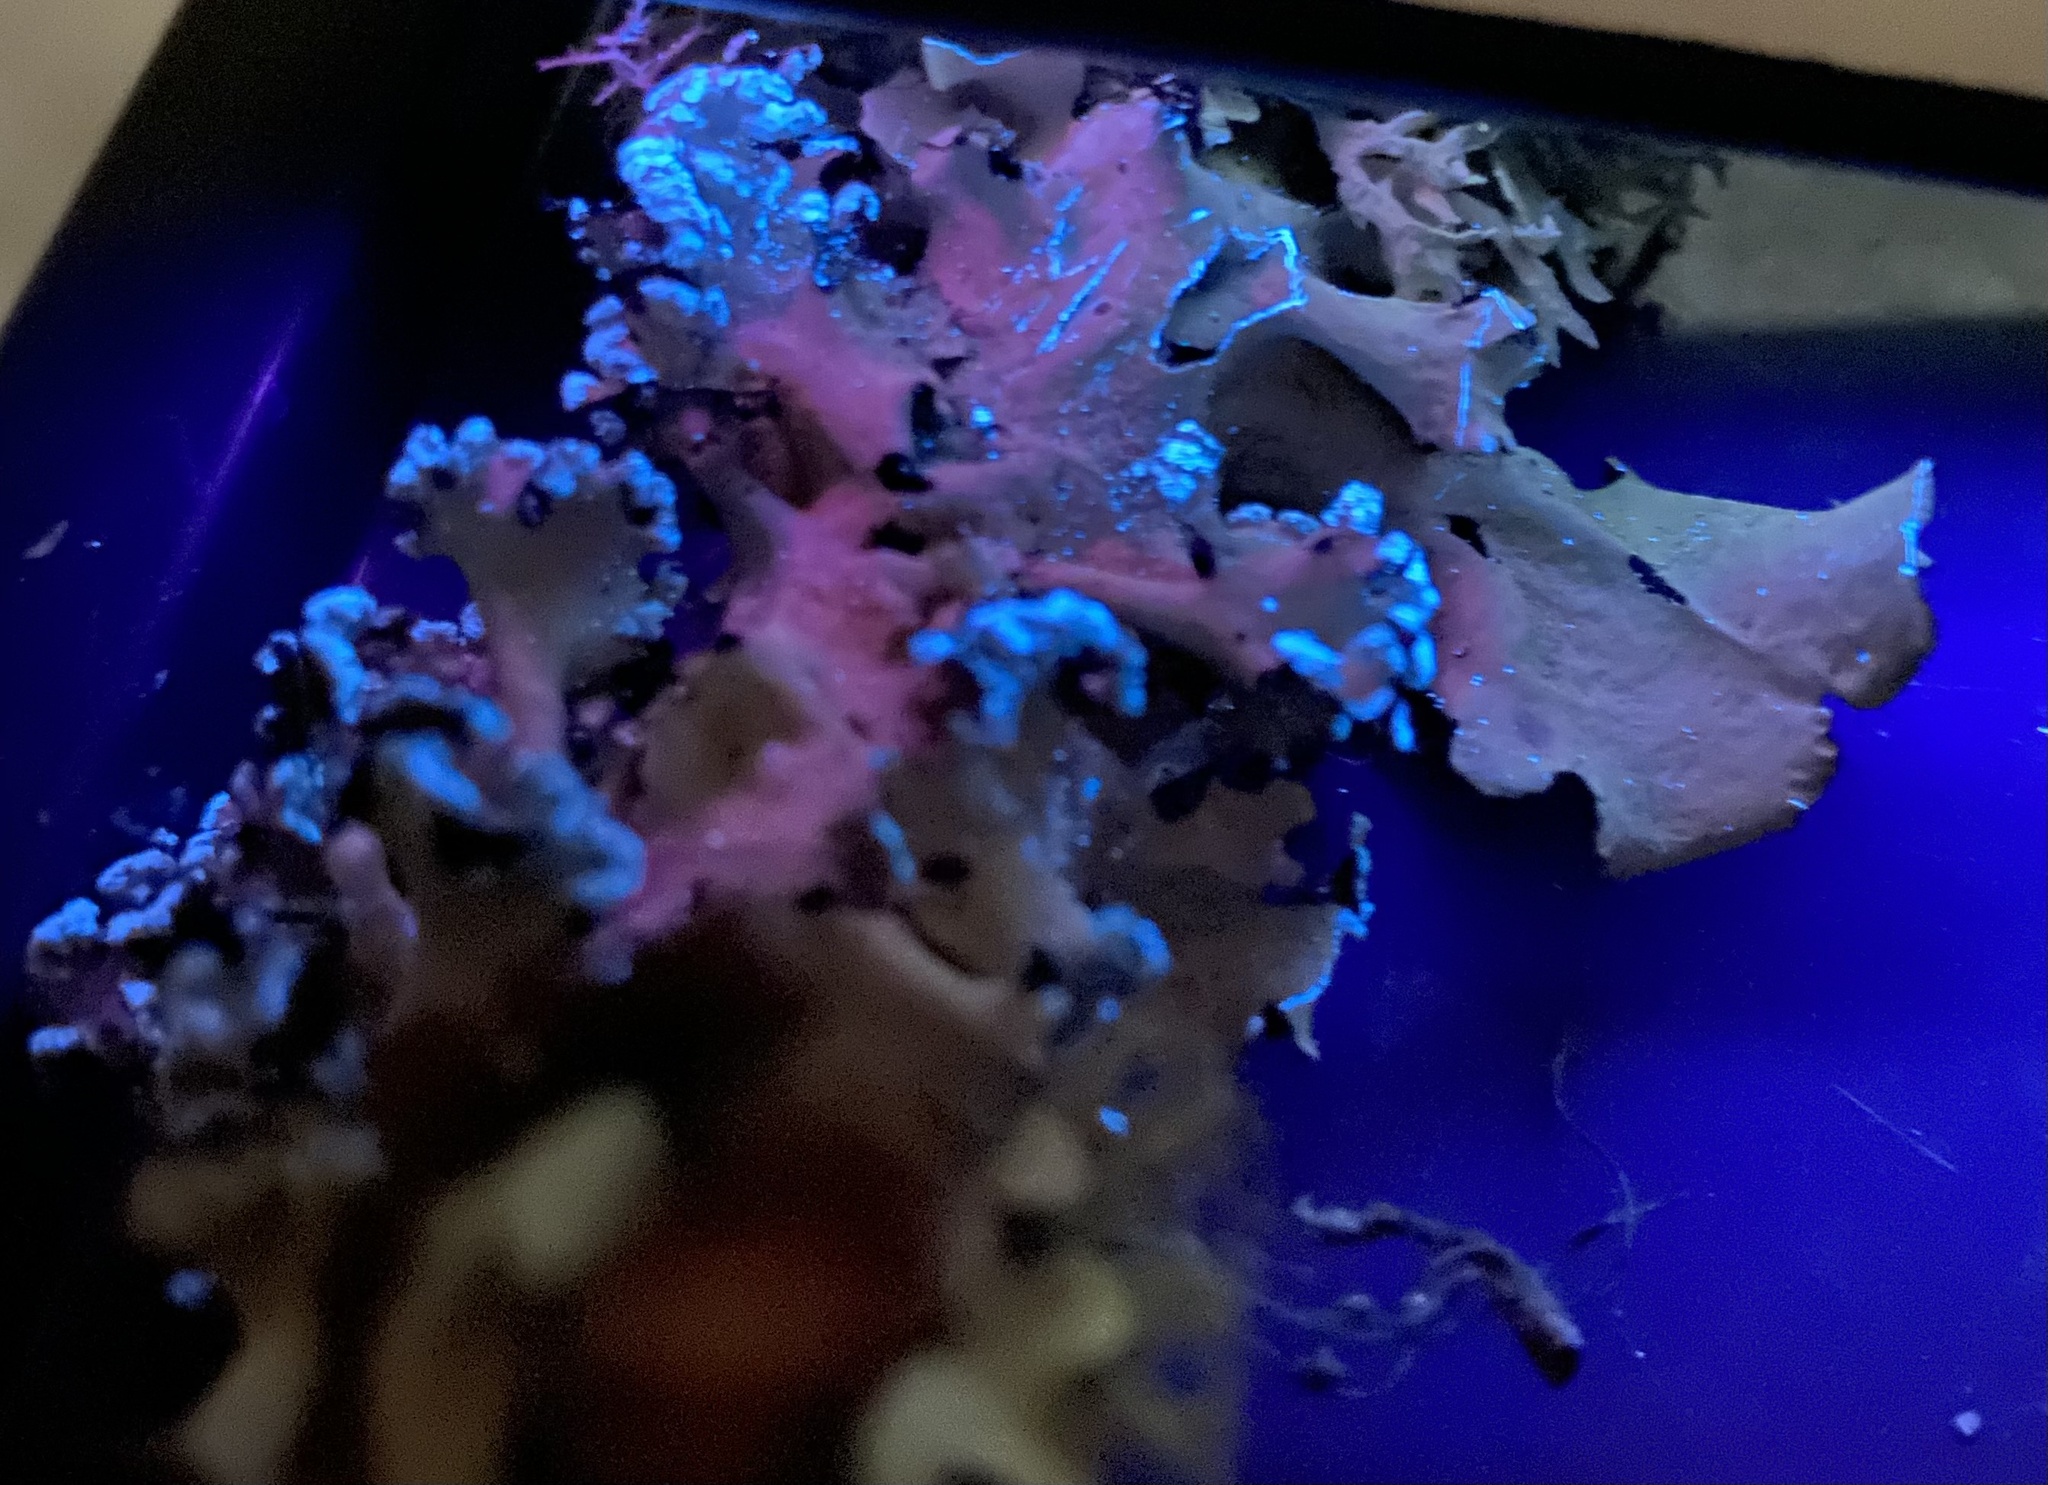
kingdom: Fungi
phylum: Ascomycota
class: Lecanoromycetes
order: Lecanorales
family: Parmeliaceae
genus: Parmotrema
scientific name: Parmotrema arnoldii
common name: Arnold's parmotrema lichen
